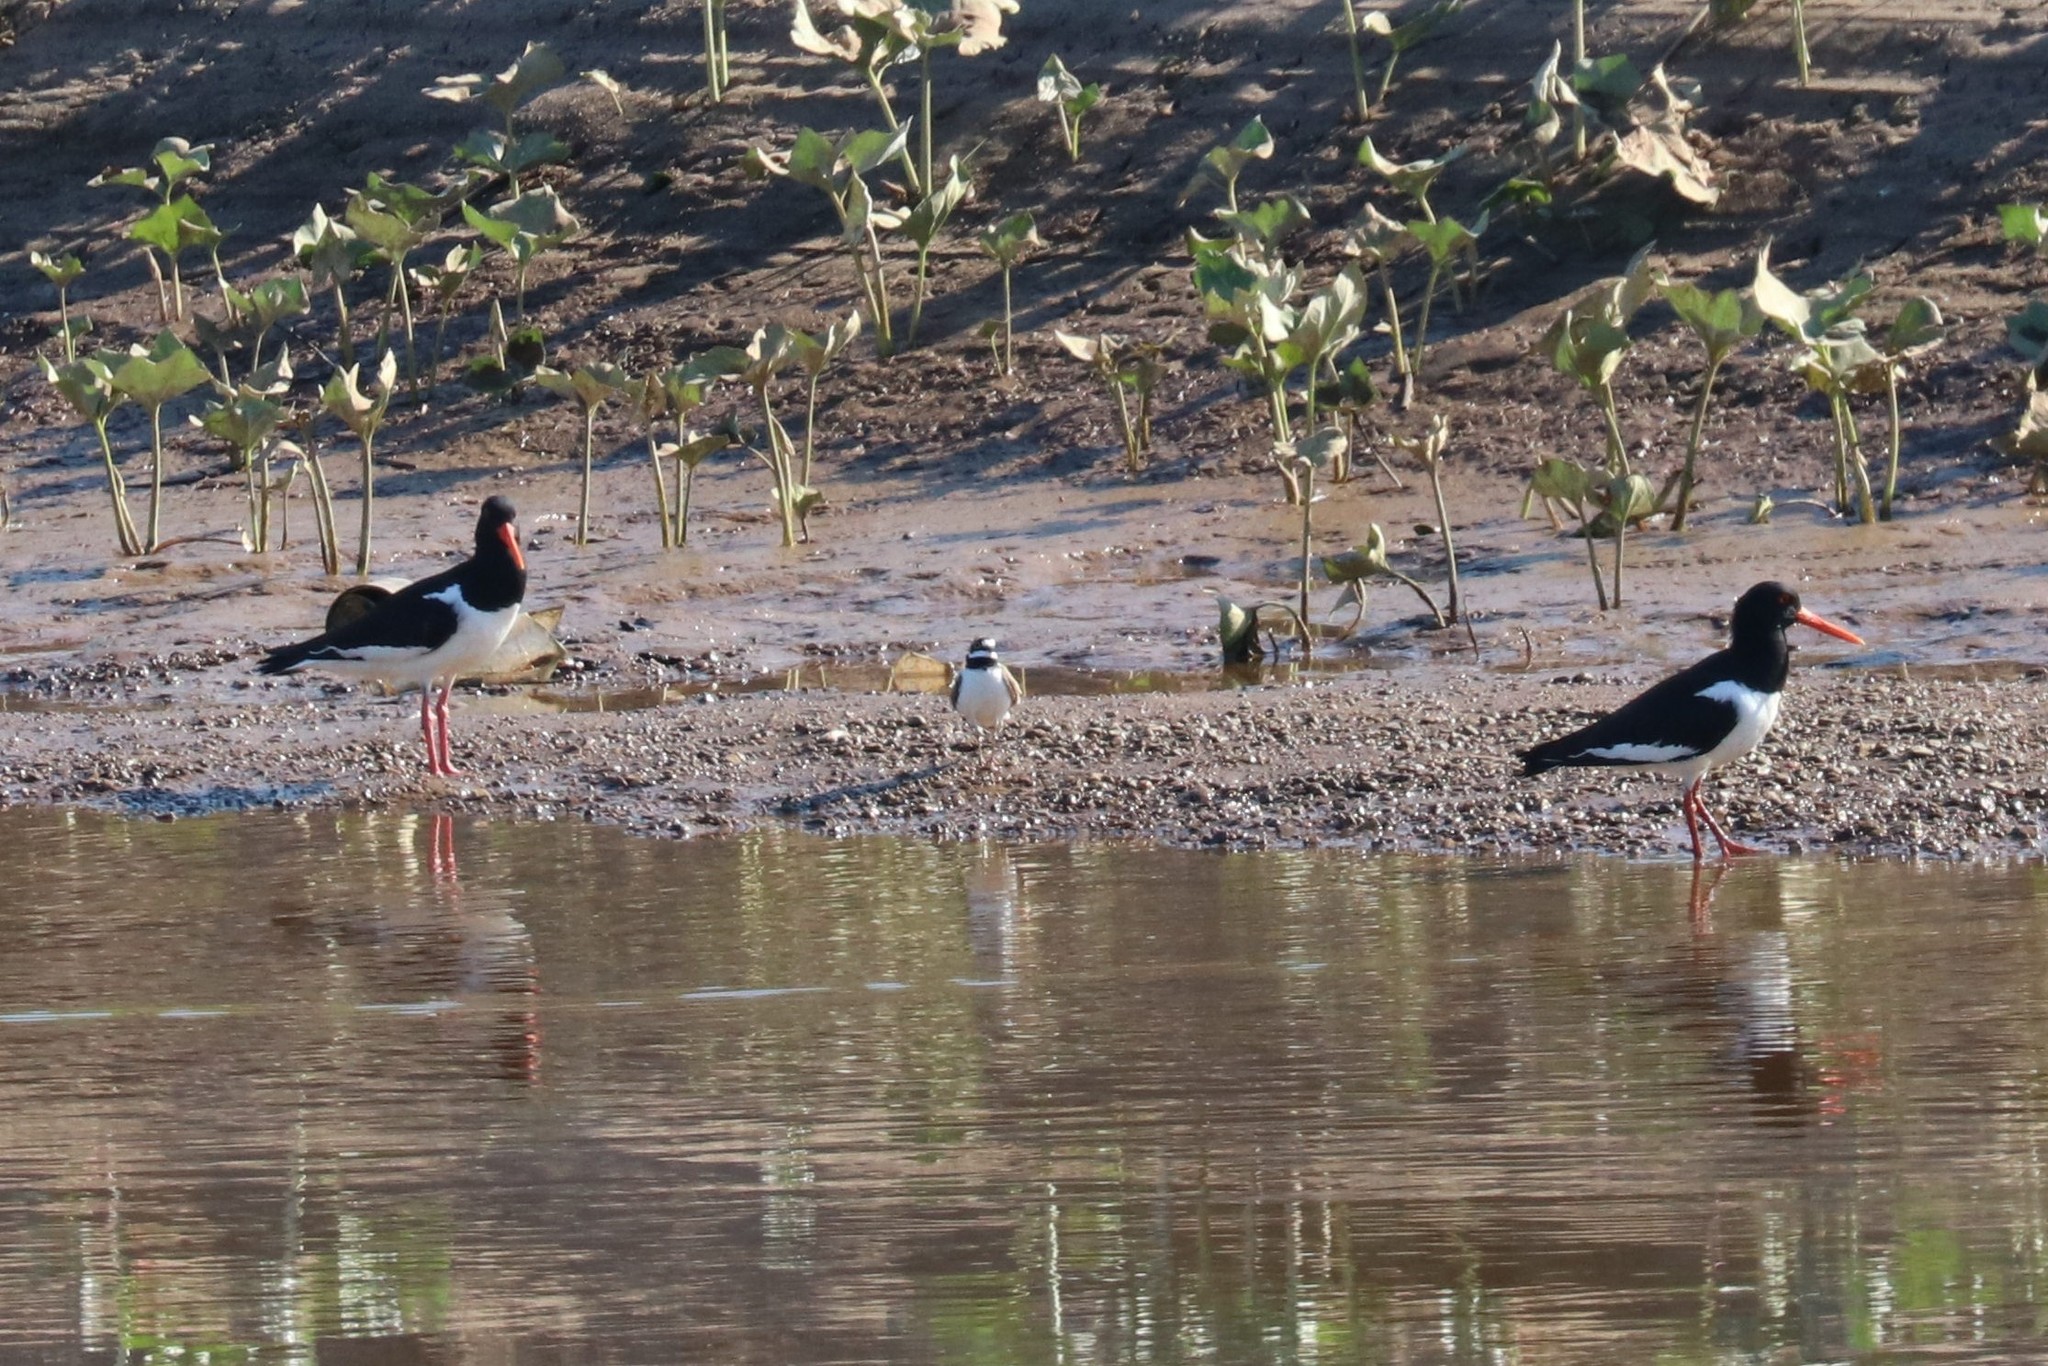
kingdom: Animalia
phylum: Chordata
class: Aves
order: Charadriiformes
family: Haematopodidae
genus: Haematopus
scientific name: Haematopus ostralegus
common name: Eurasian oystercatcher
